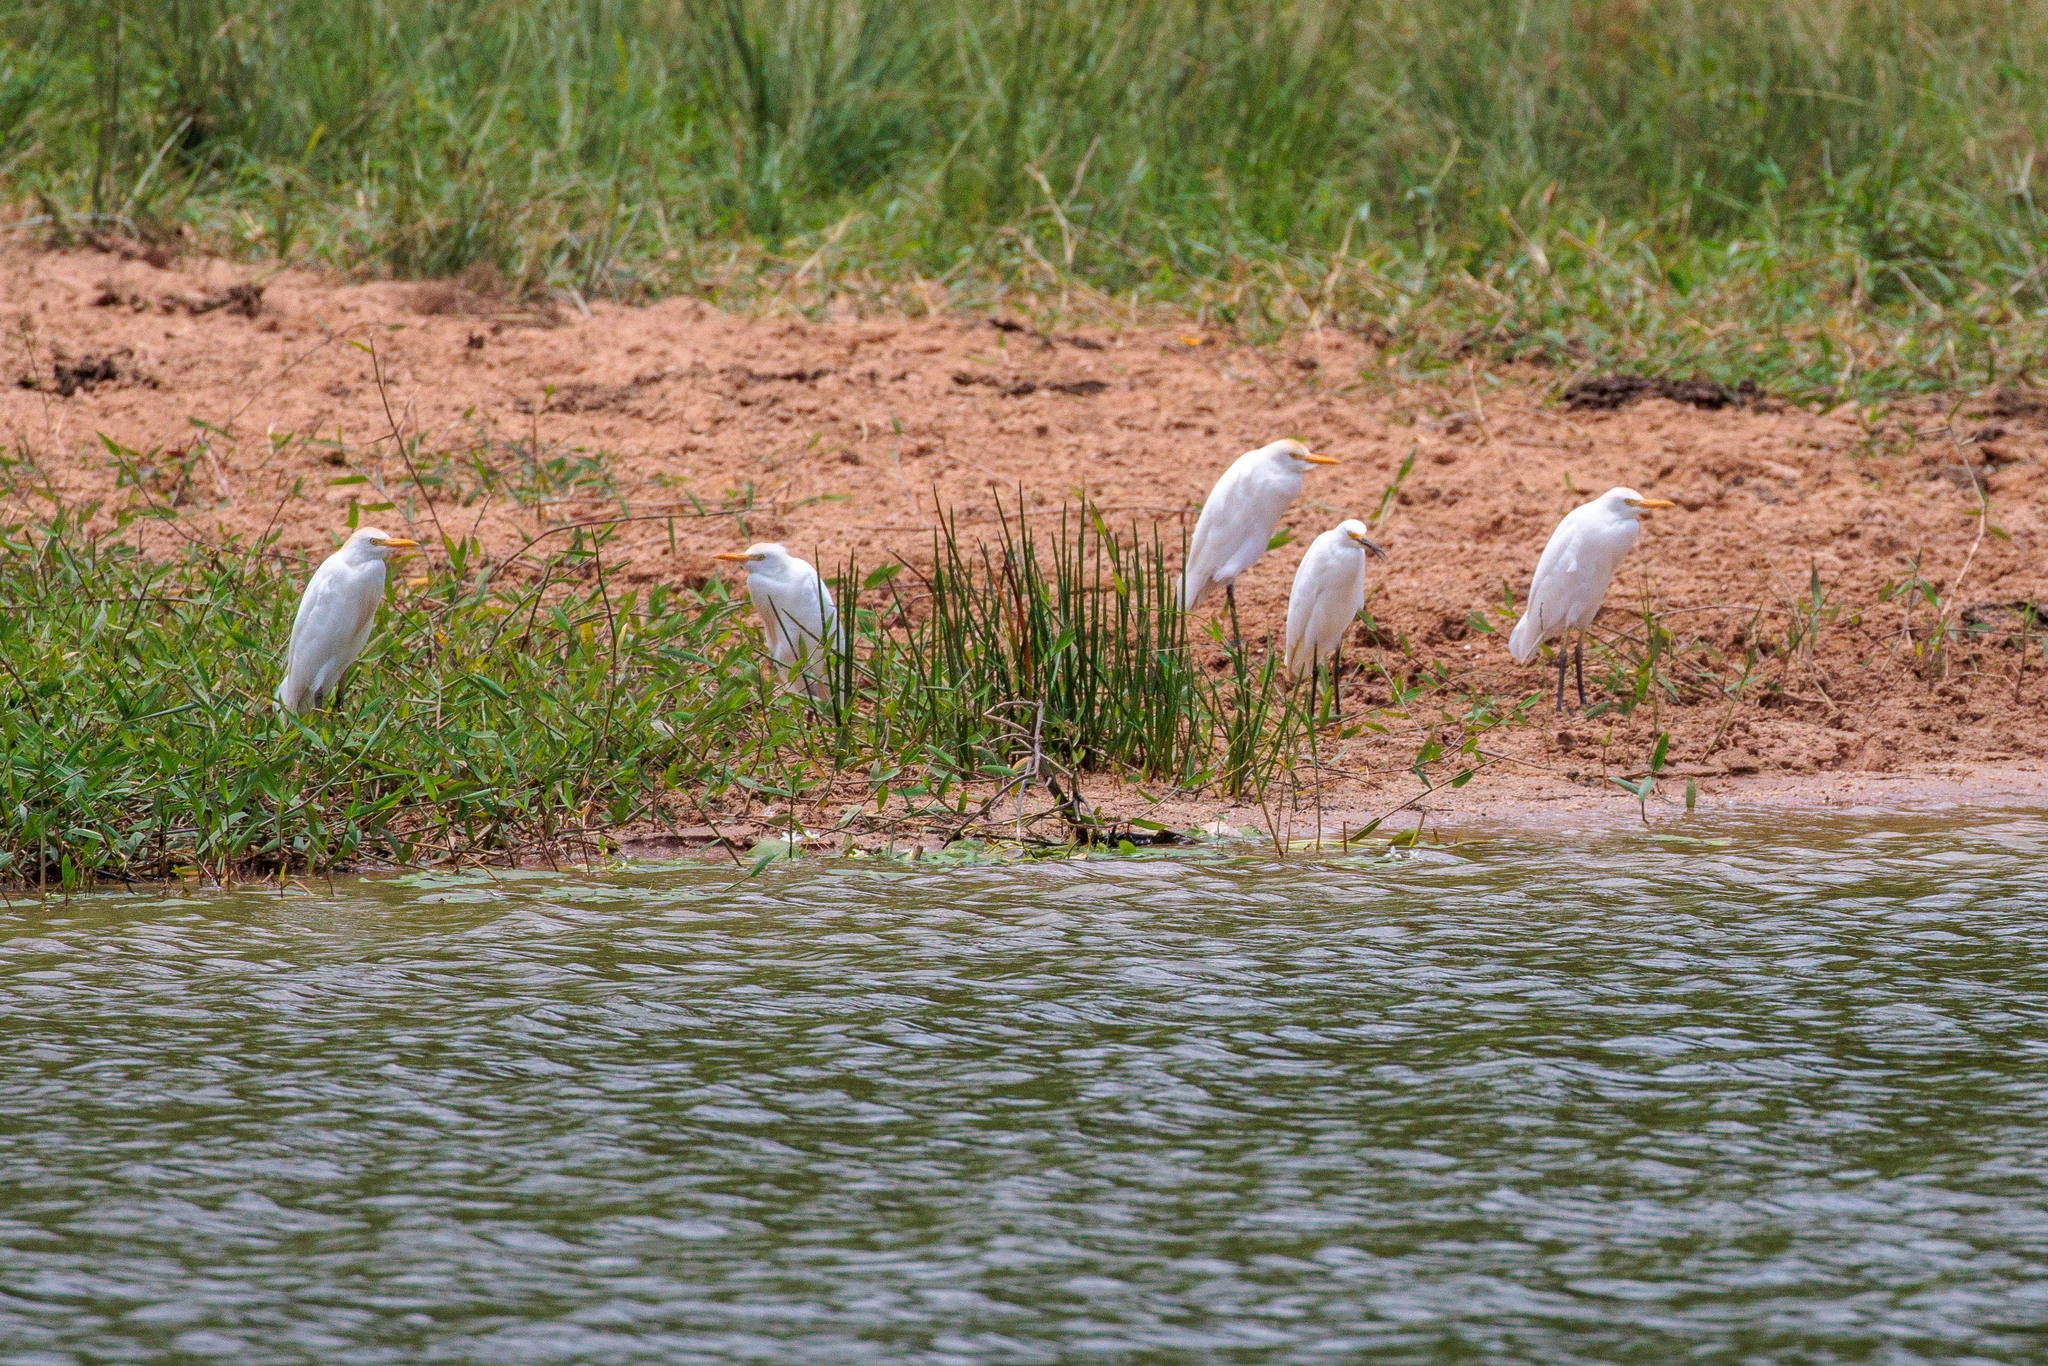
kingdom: Animalia
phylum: Chordata
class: Aves
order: Pelecaniformes
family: Ardeidae
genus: Bubulcus
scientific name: Bubulcus ibis
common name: Cattle egret
